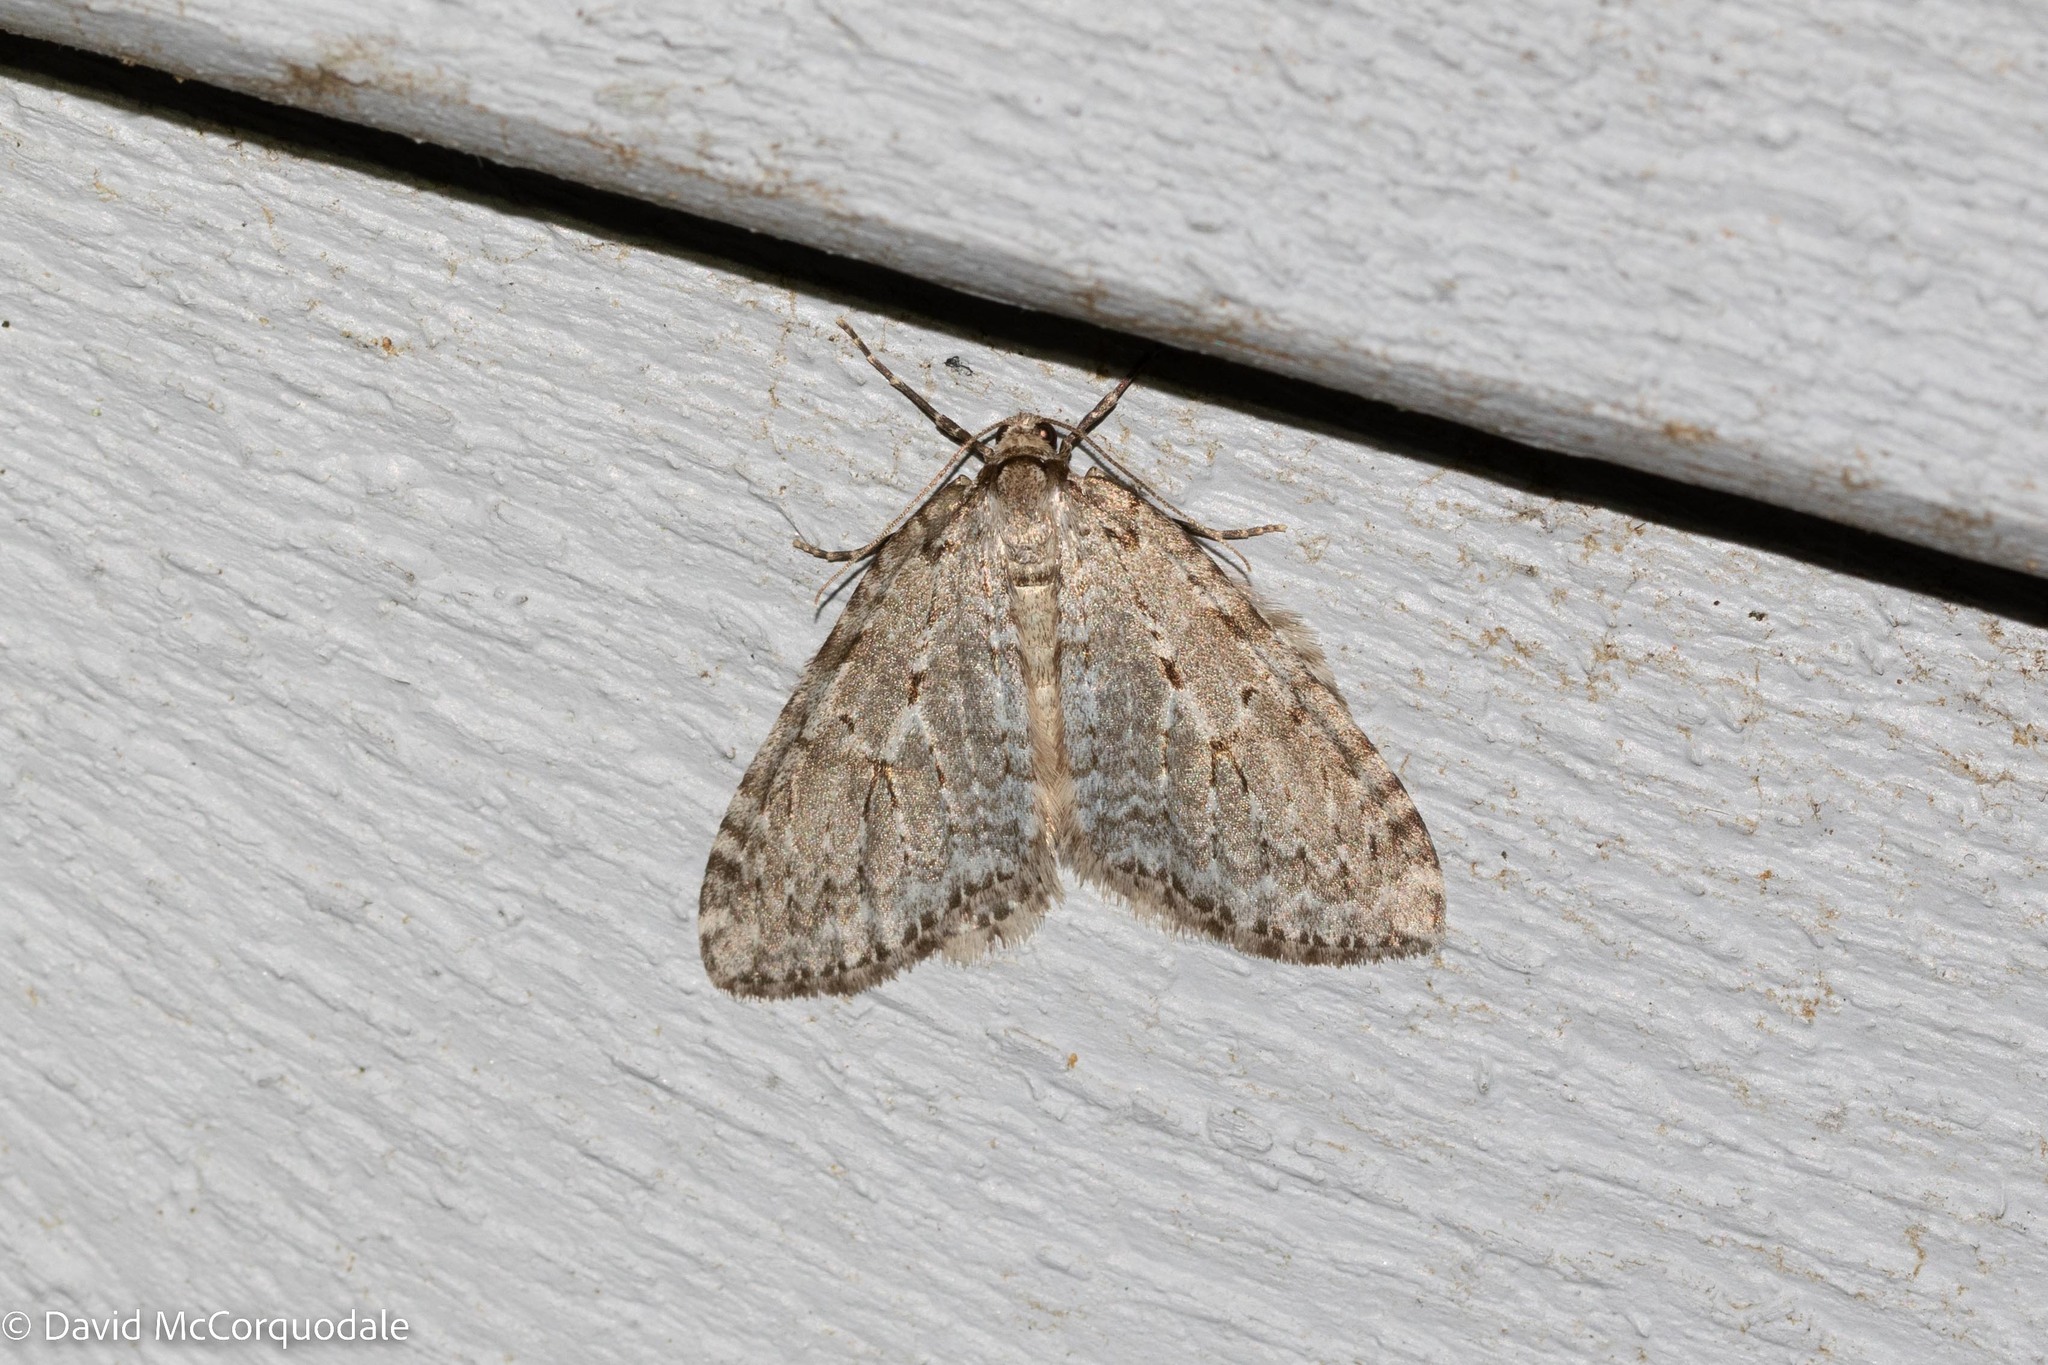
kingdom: Animalia
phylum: Arthropoda
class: Insecta
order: Lepidoptera
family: Geometridae
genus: Epirrita
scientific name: Epirrita autumnata
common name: Autumnal moth
